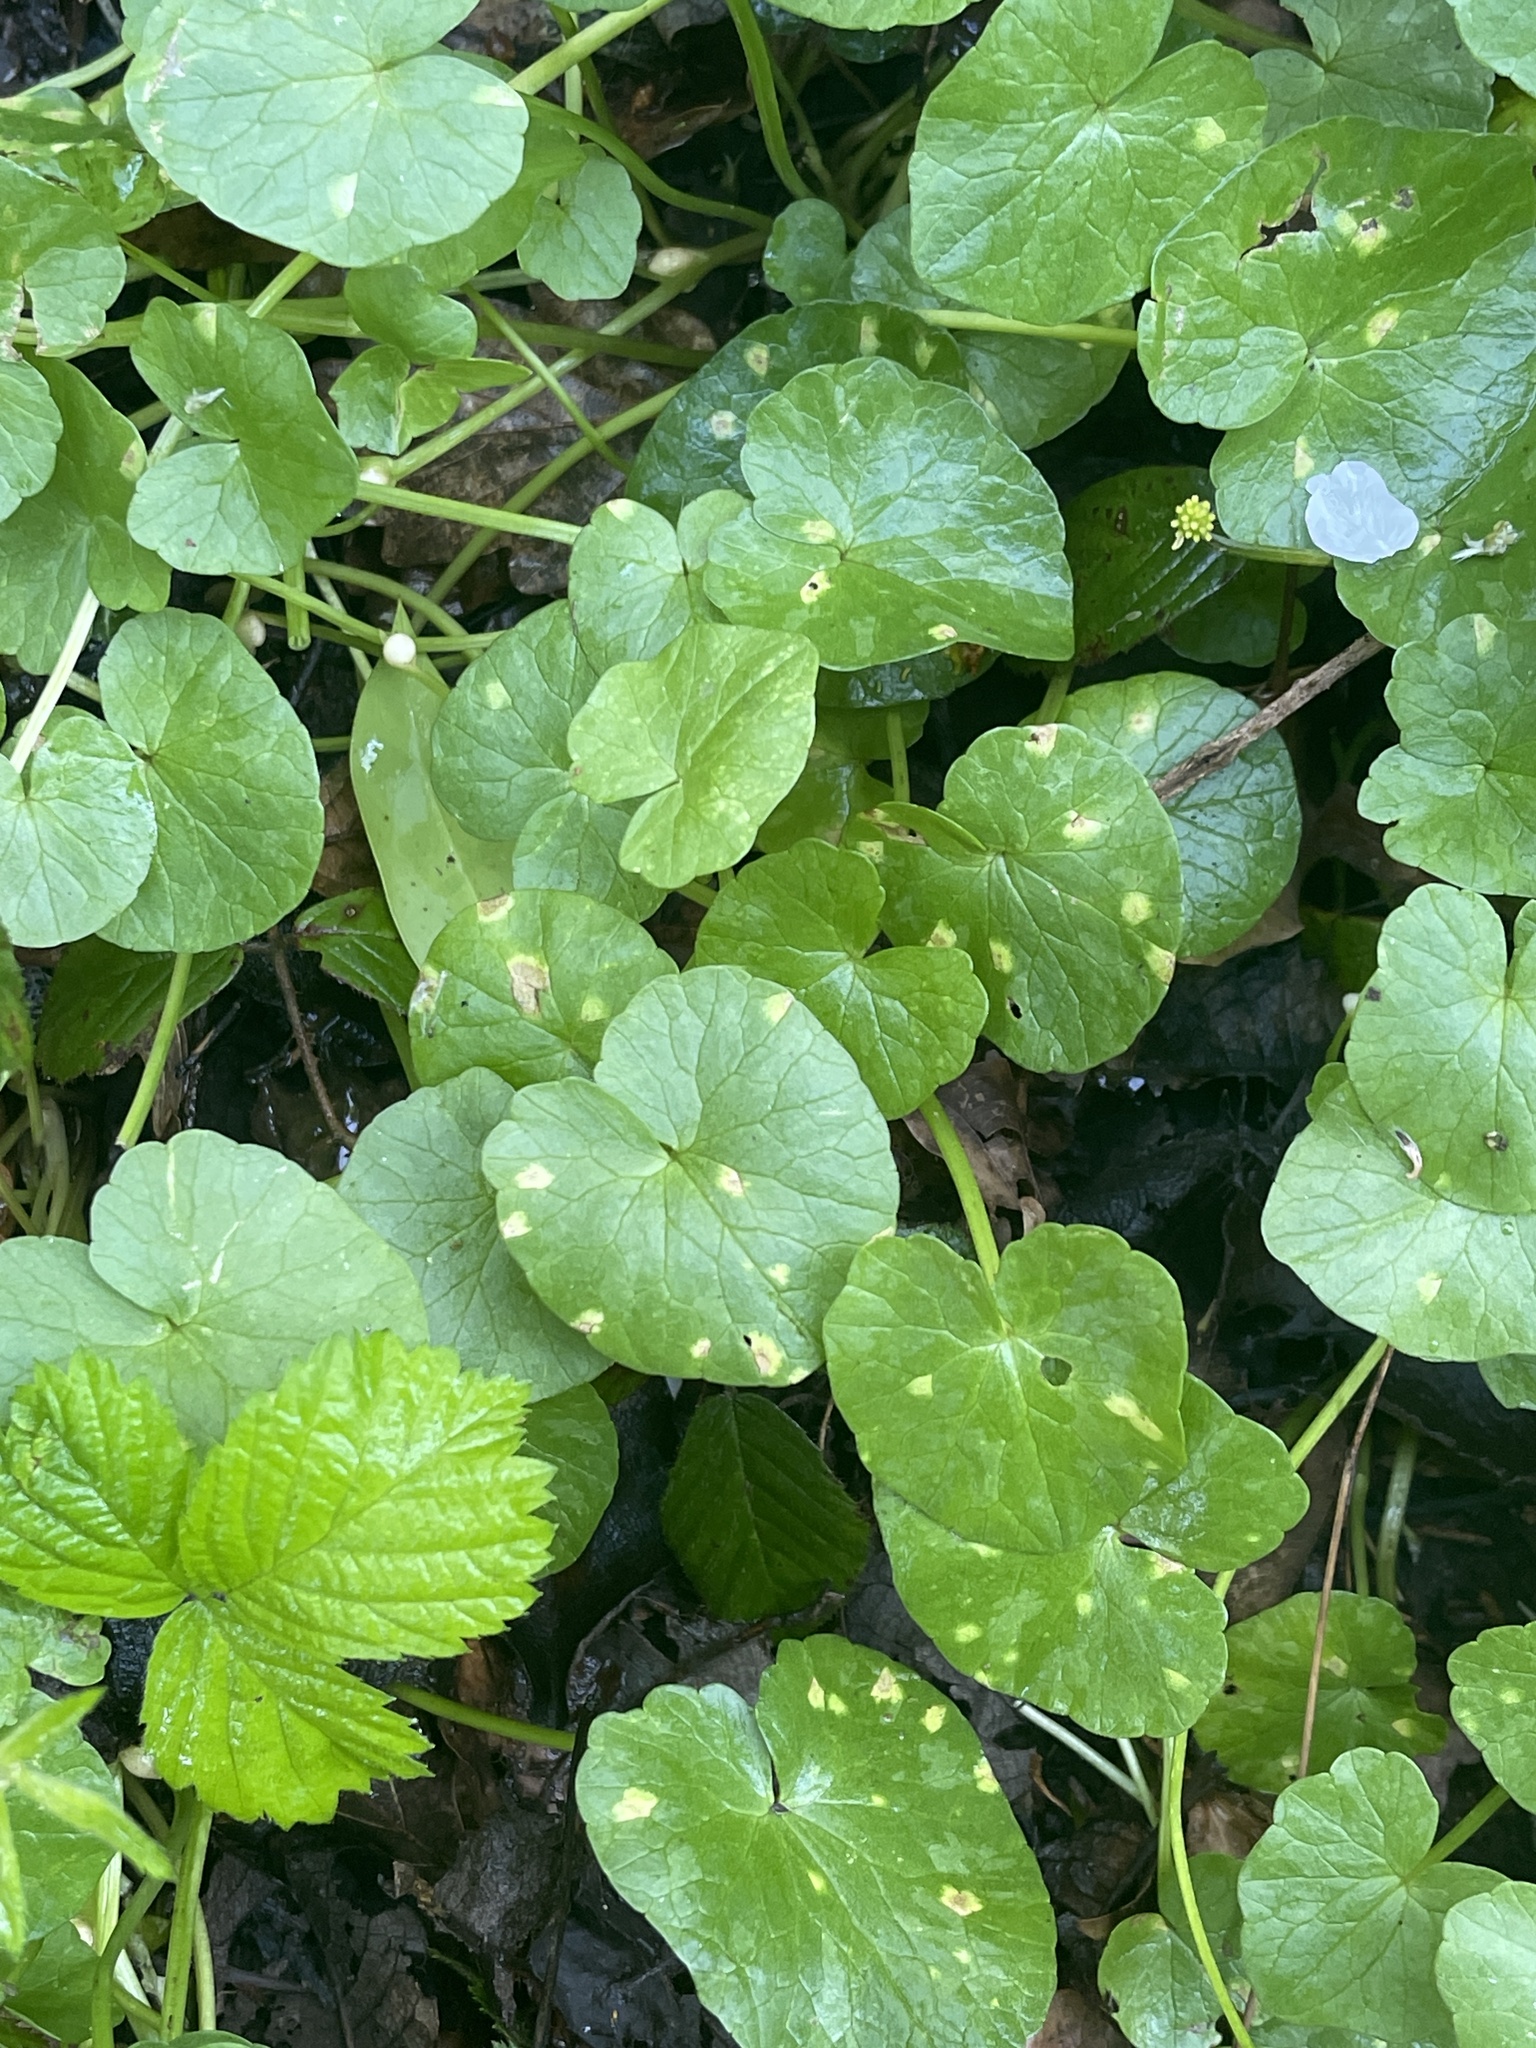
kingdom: Plantae
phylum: Tracheophyta
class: Magnoliopsida
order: Ranunculales
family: Ranunculaceae
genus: Ficaria
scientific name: Ficaria verna
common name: Lesser celandine
